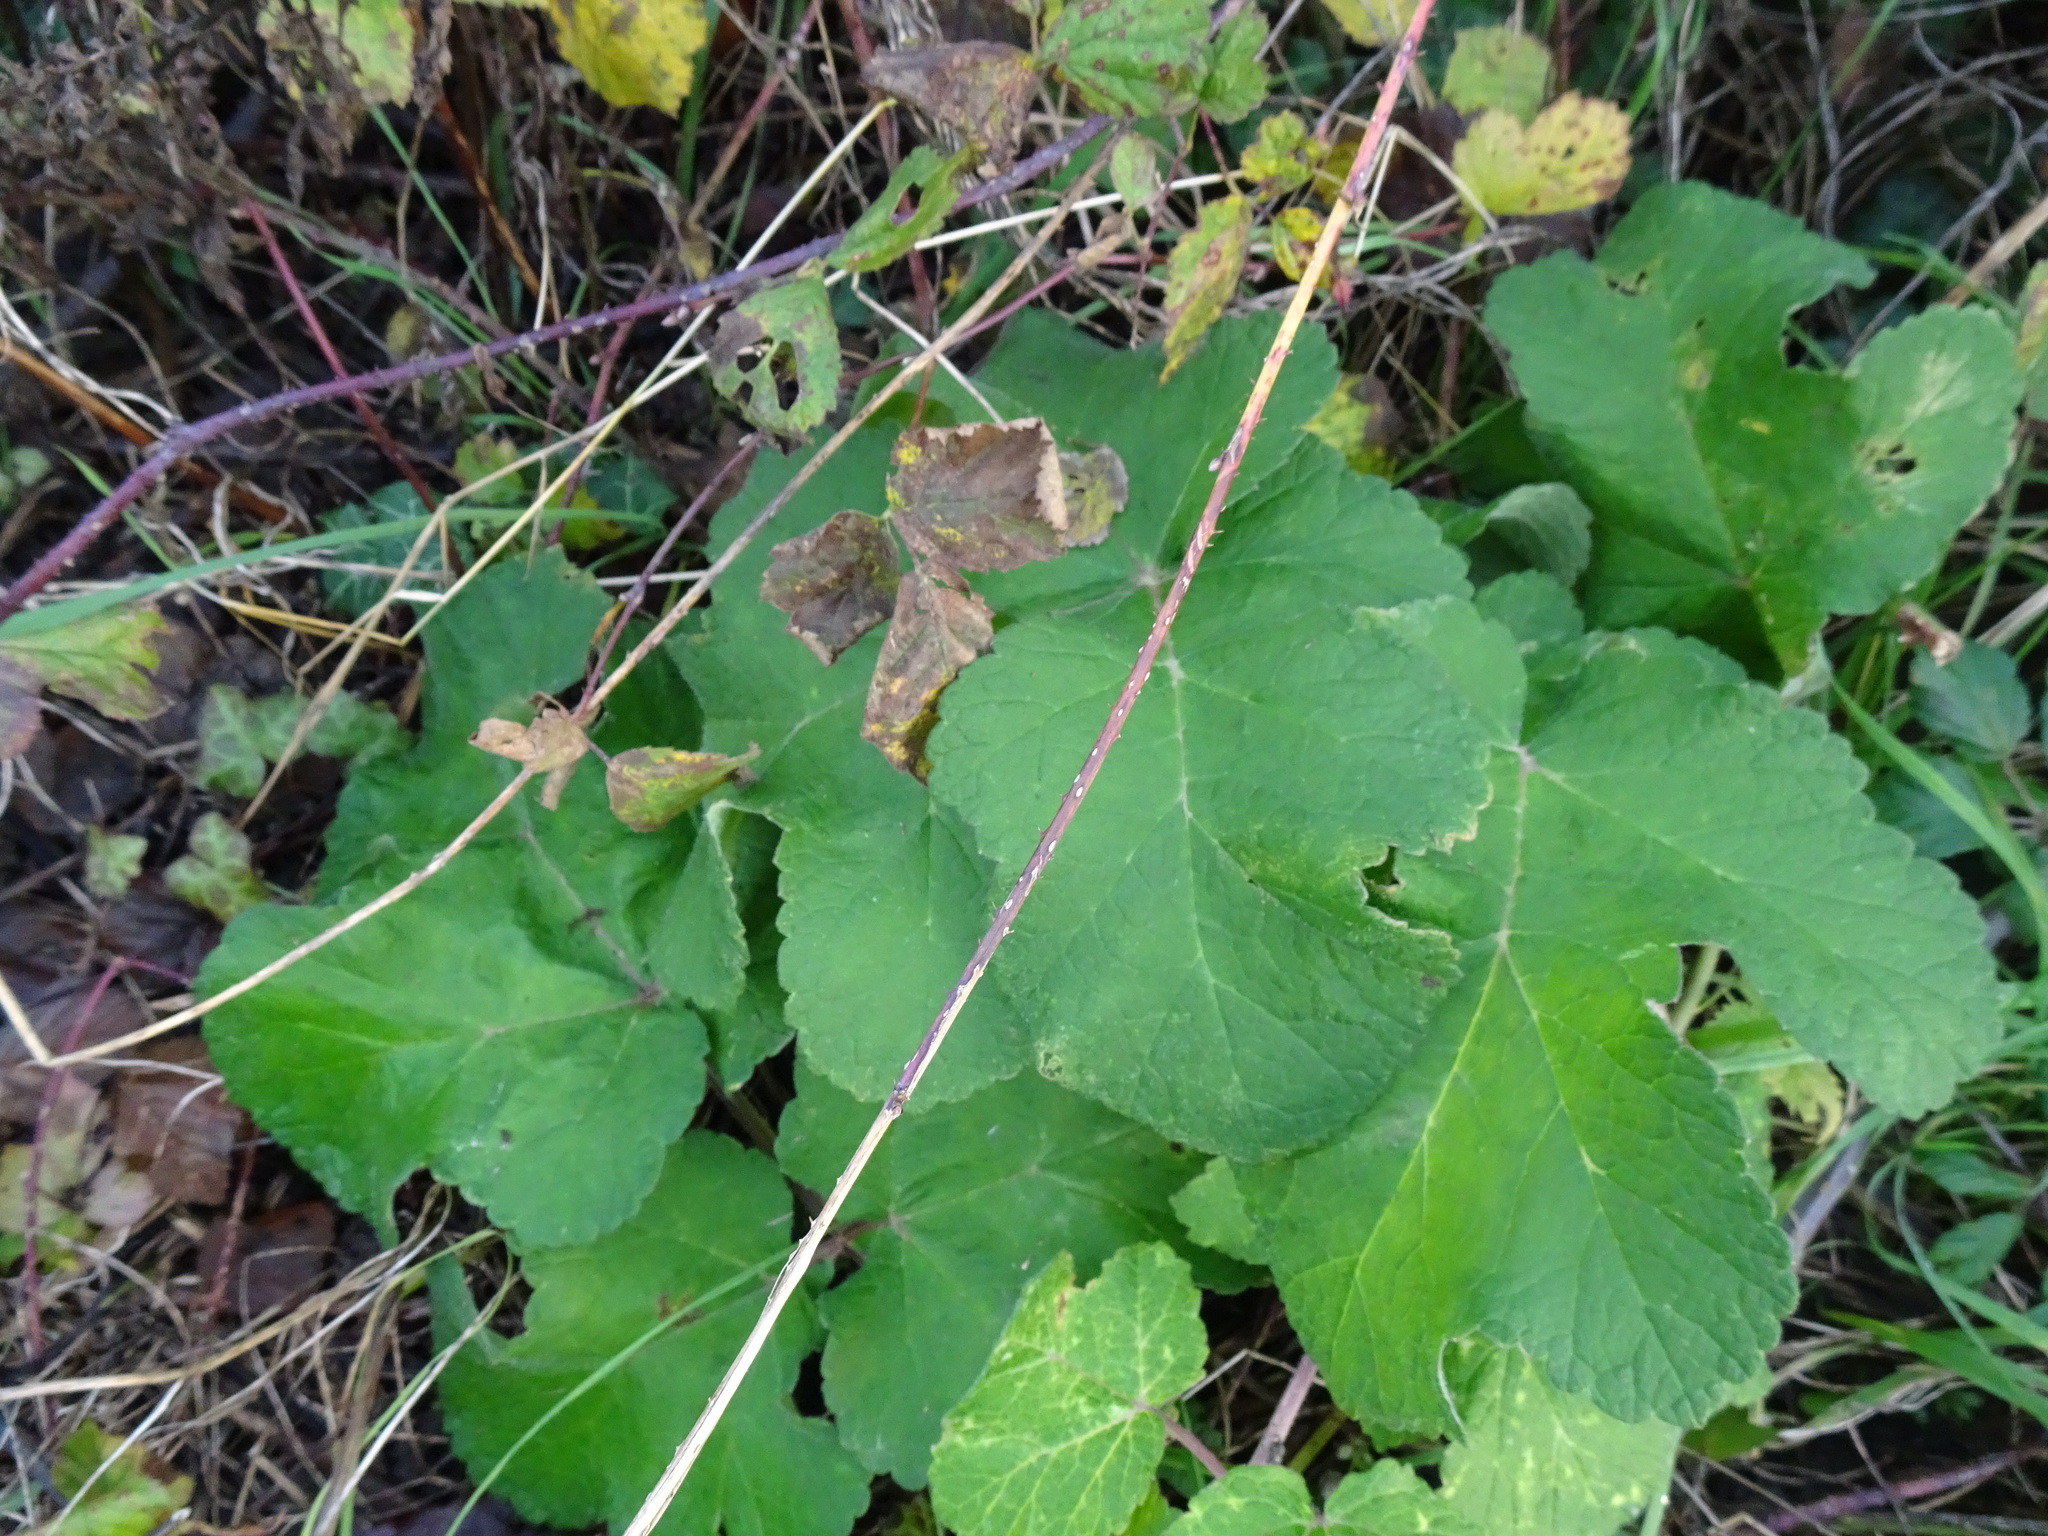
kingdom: Plantae
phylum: Tracheophyta
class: Magnoliopsida
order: Apiales
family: Apiaceae
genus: Heracleum
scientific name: Heracleum sphondylium
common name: Hogweed
